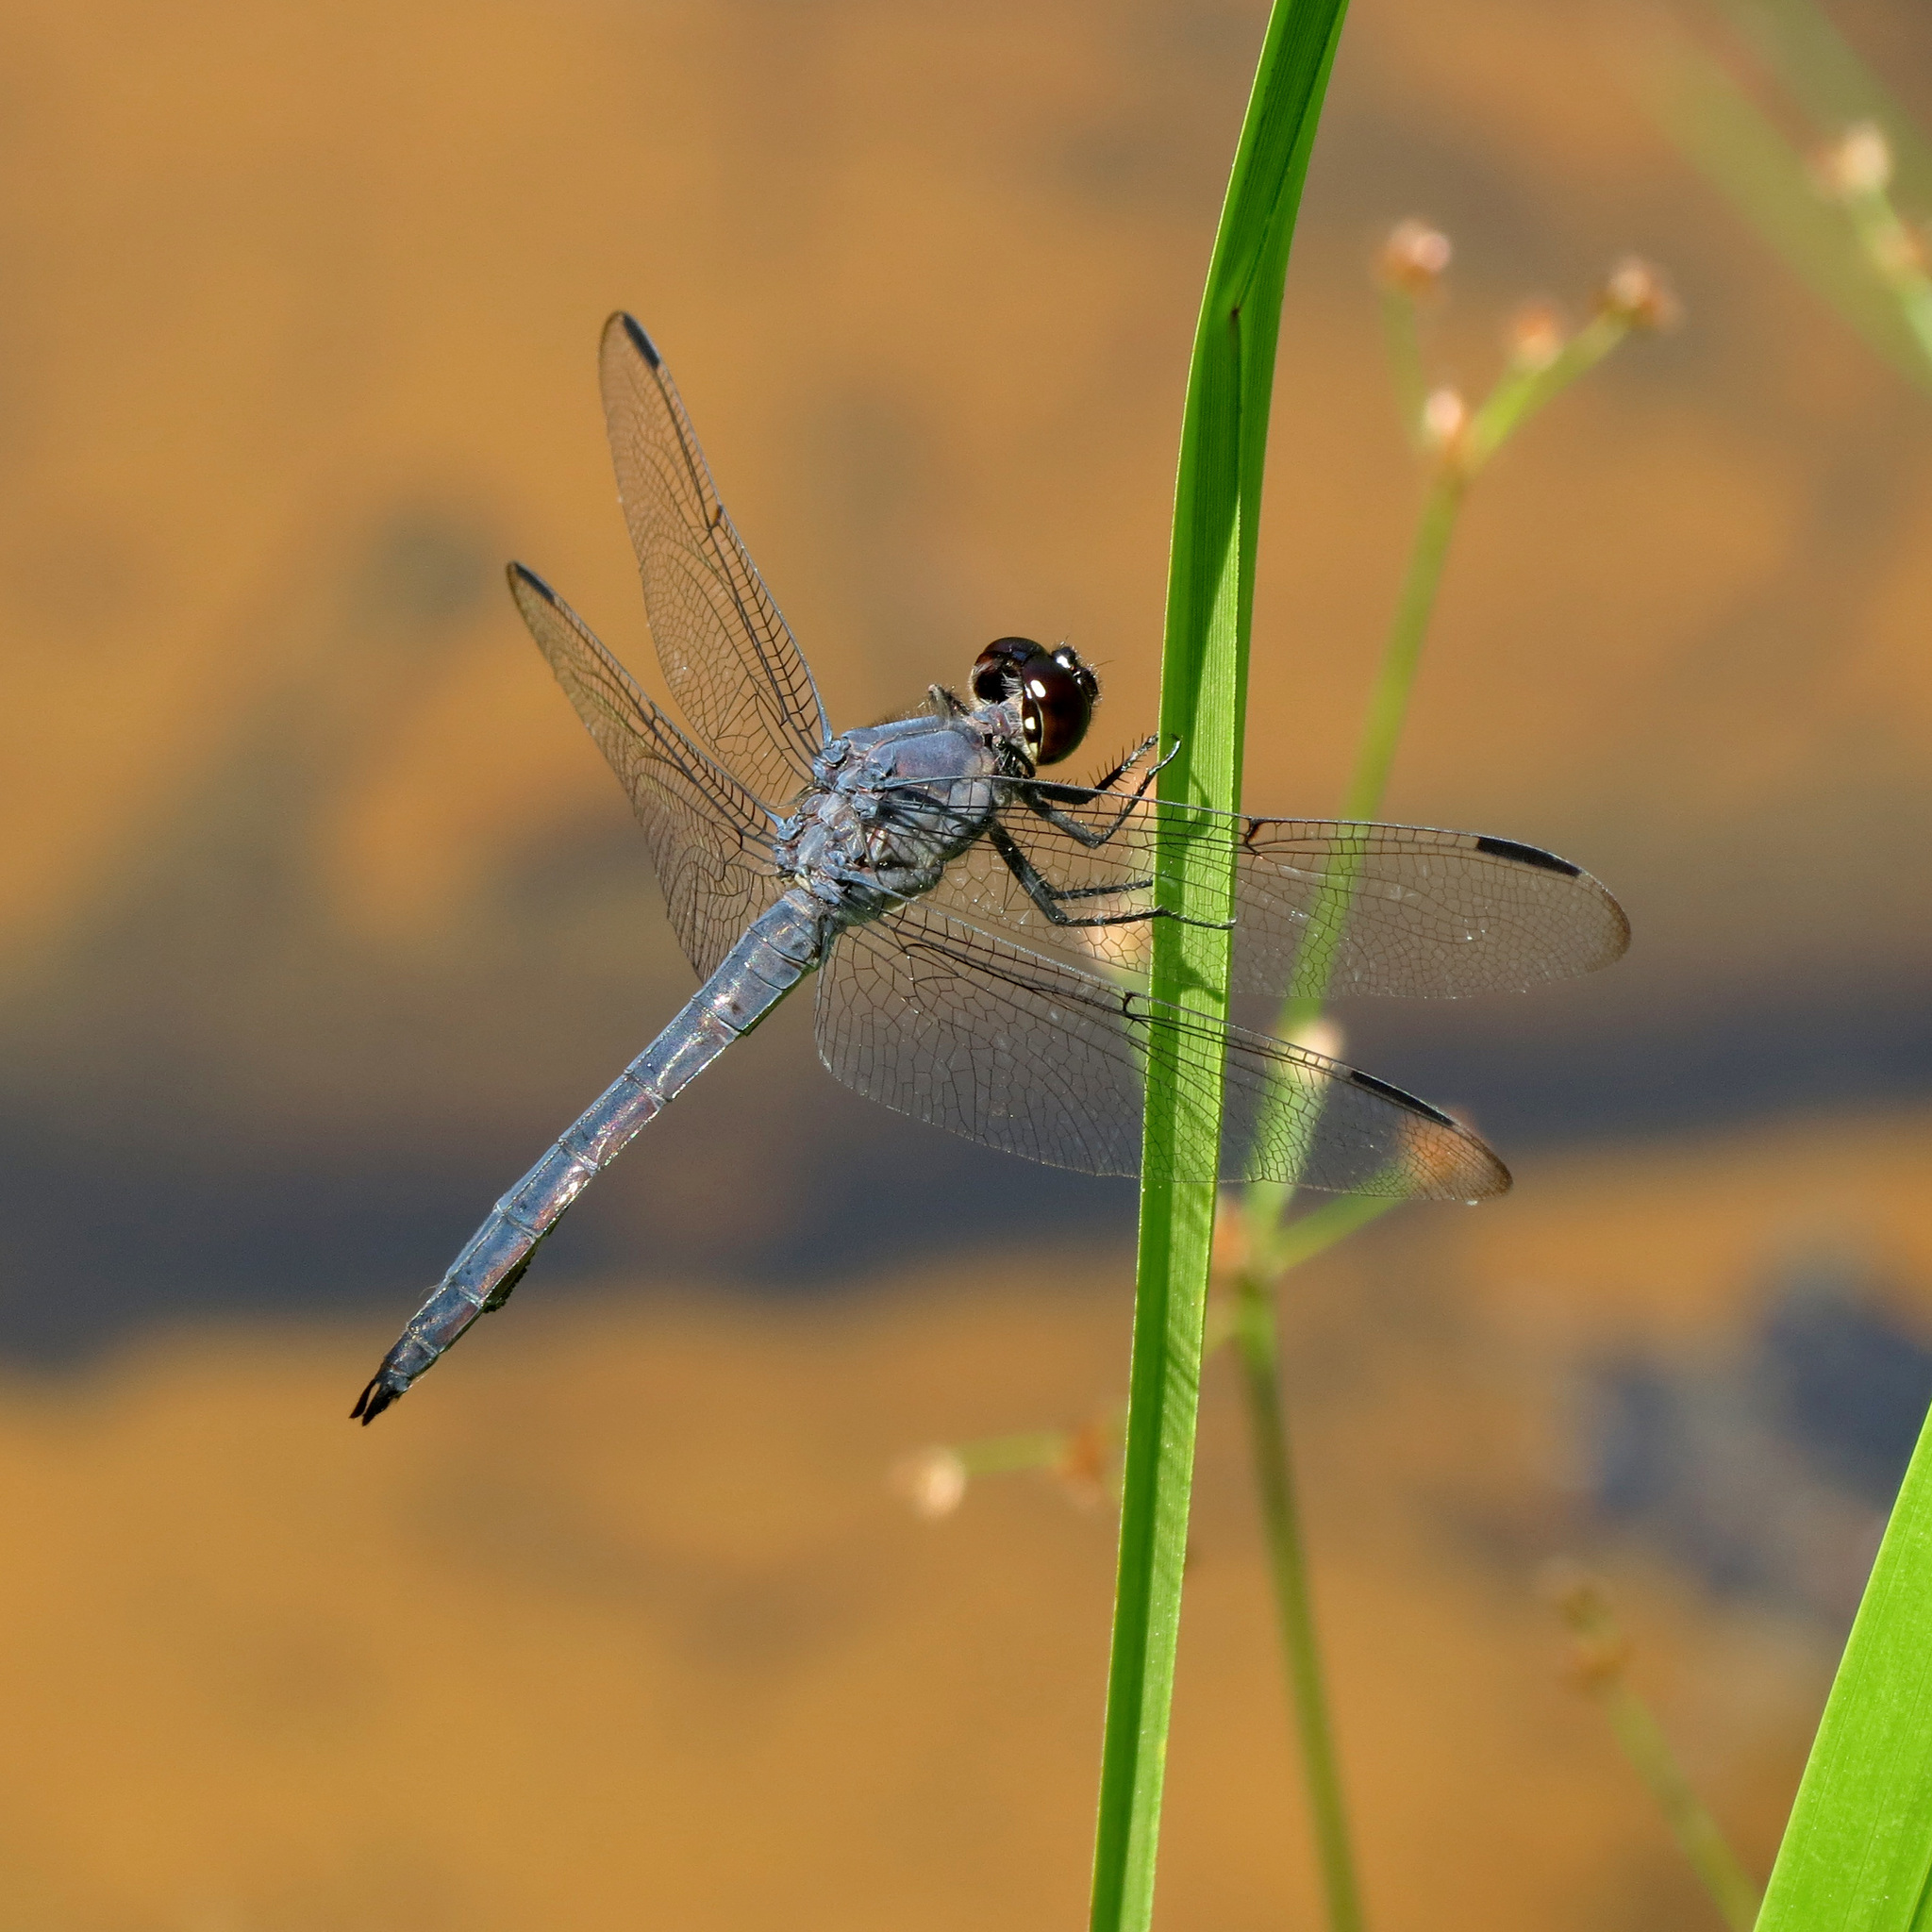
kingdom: Animalia
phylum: Arthropoda
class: Insecta
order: Odonata
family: Libellulidae
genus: Libellula
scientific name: Libellula incesta
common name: Slaty skimmer
